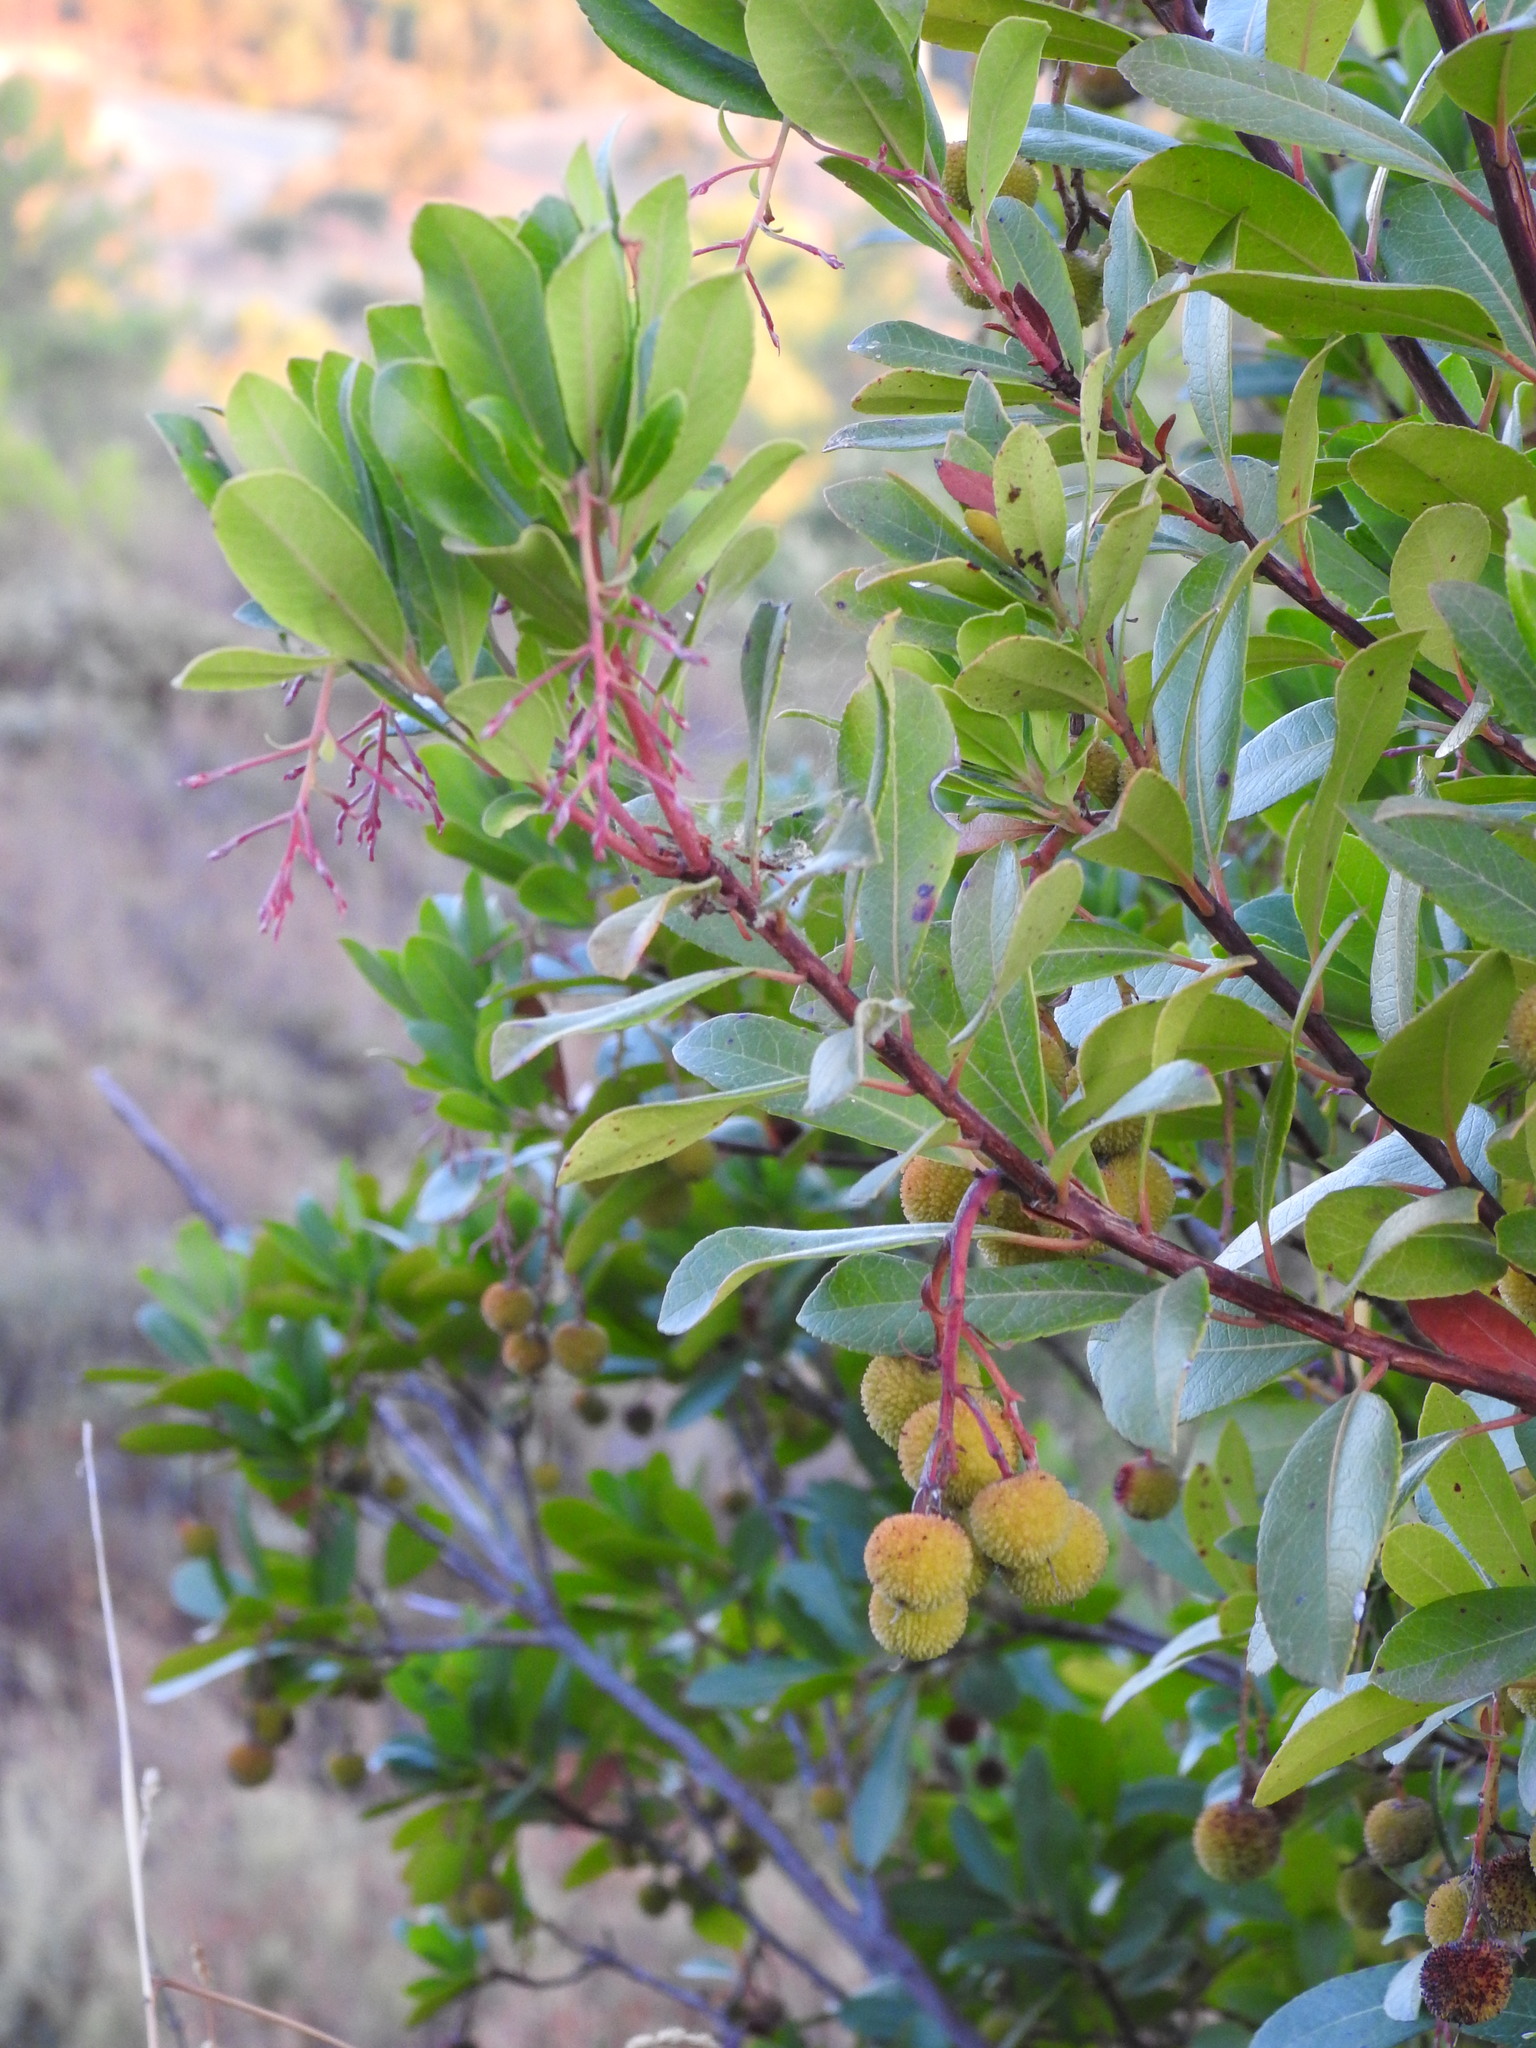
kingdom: Plantae
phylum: Tracheophyta
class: Magnoliopsida
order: Ericales
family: Ericaceae
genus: Arbutus
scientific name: Arbutus unedo
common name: Strawberry-tree
